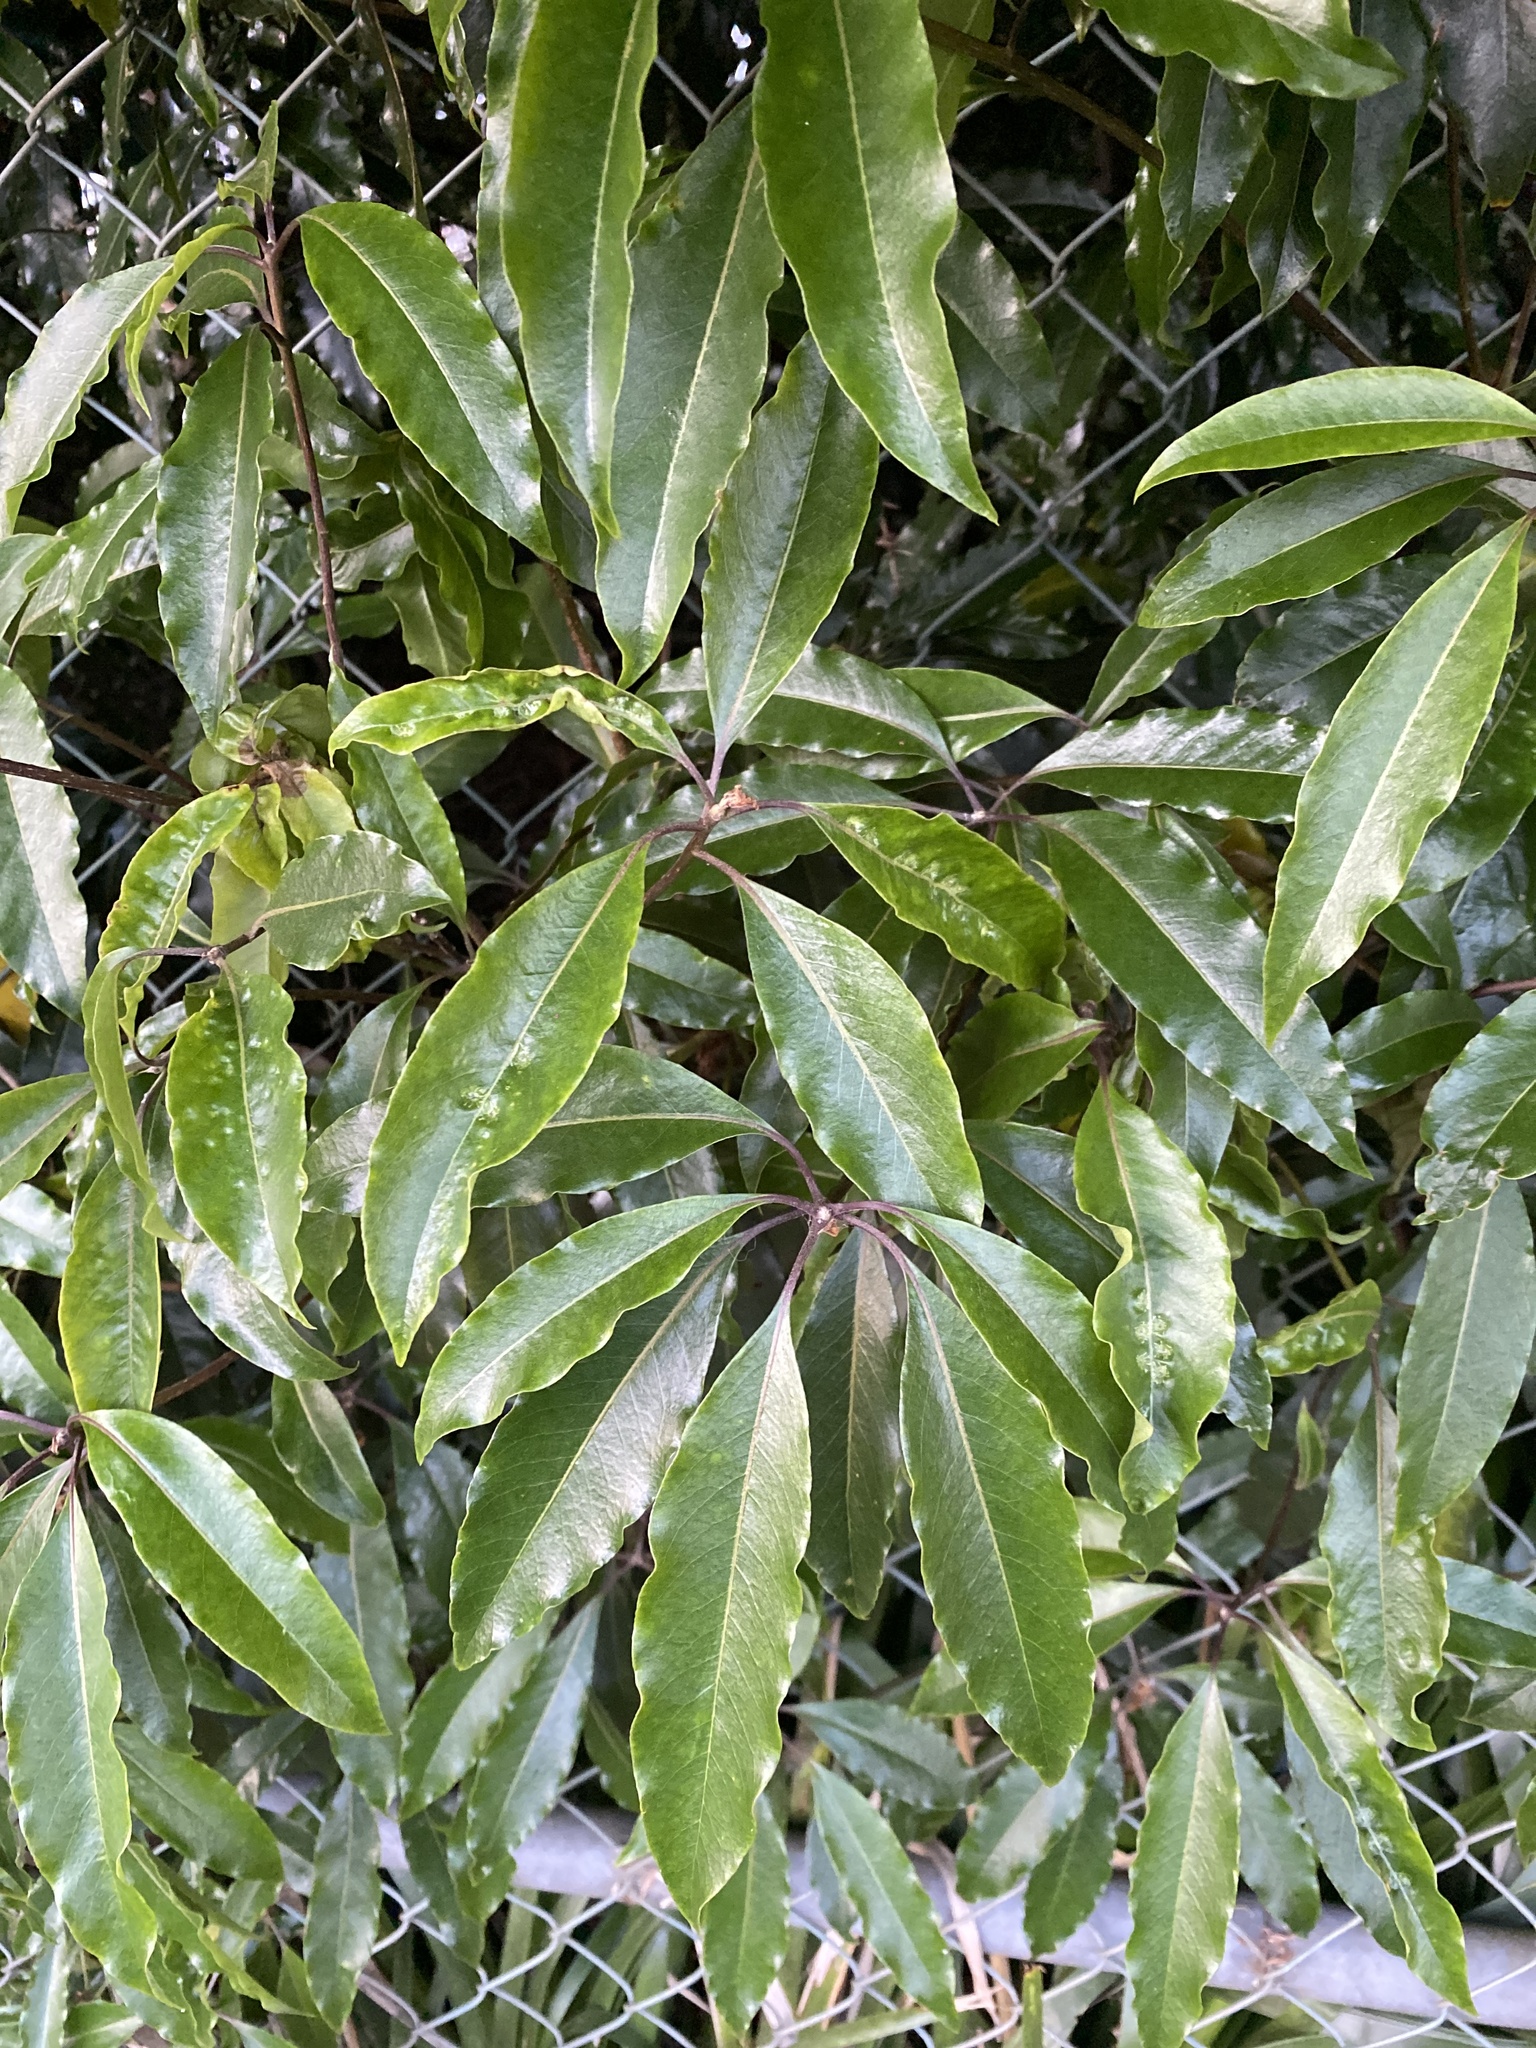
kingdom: Plantae
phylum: Tracheophyta
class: Magnoliopsida
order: Apiales
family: Pittosporaceae
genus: Pittosporum
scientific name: Pittosporum undulatum
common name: Australian cheesewood
